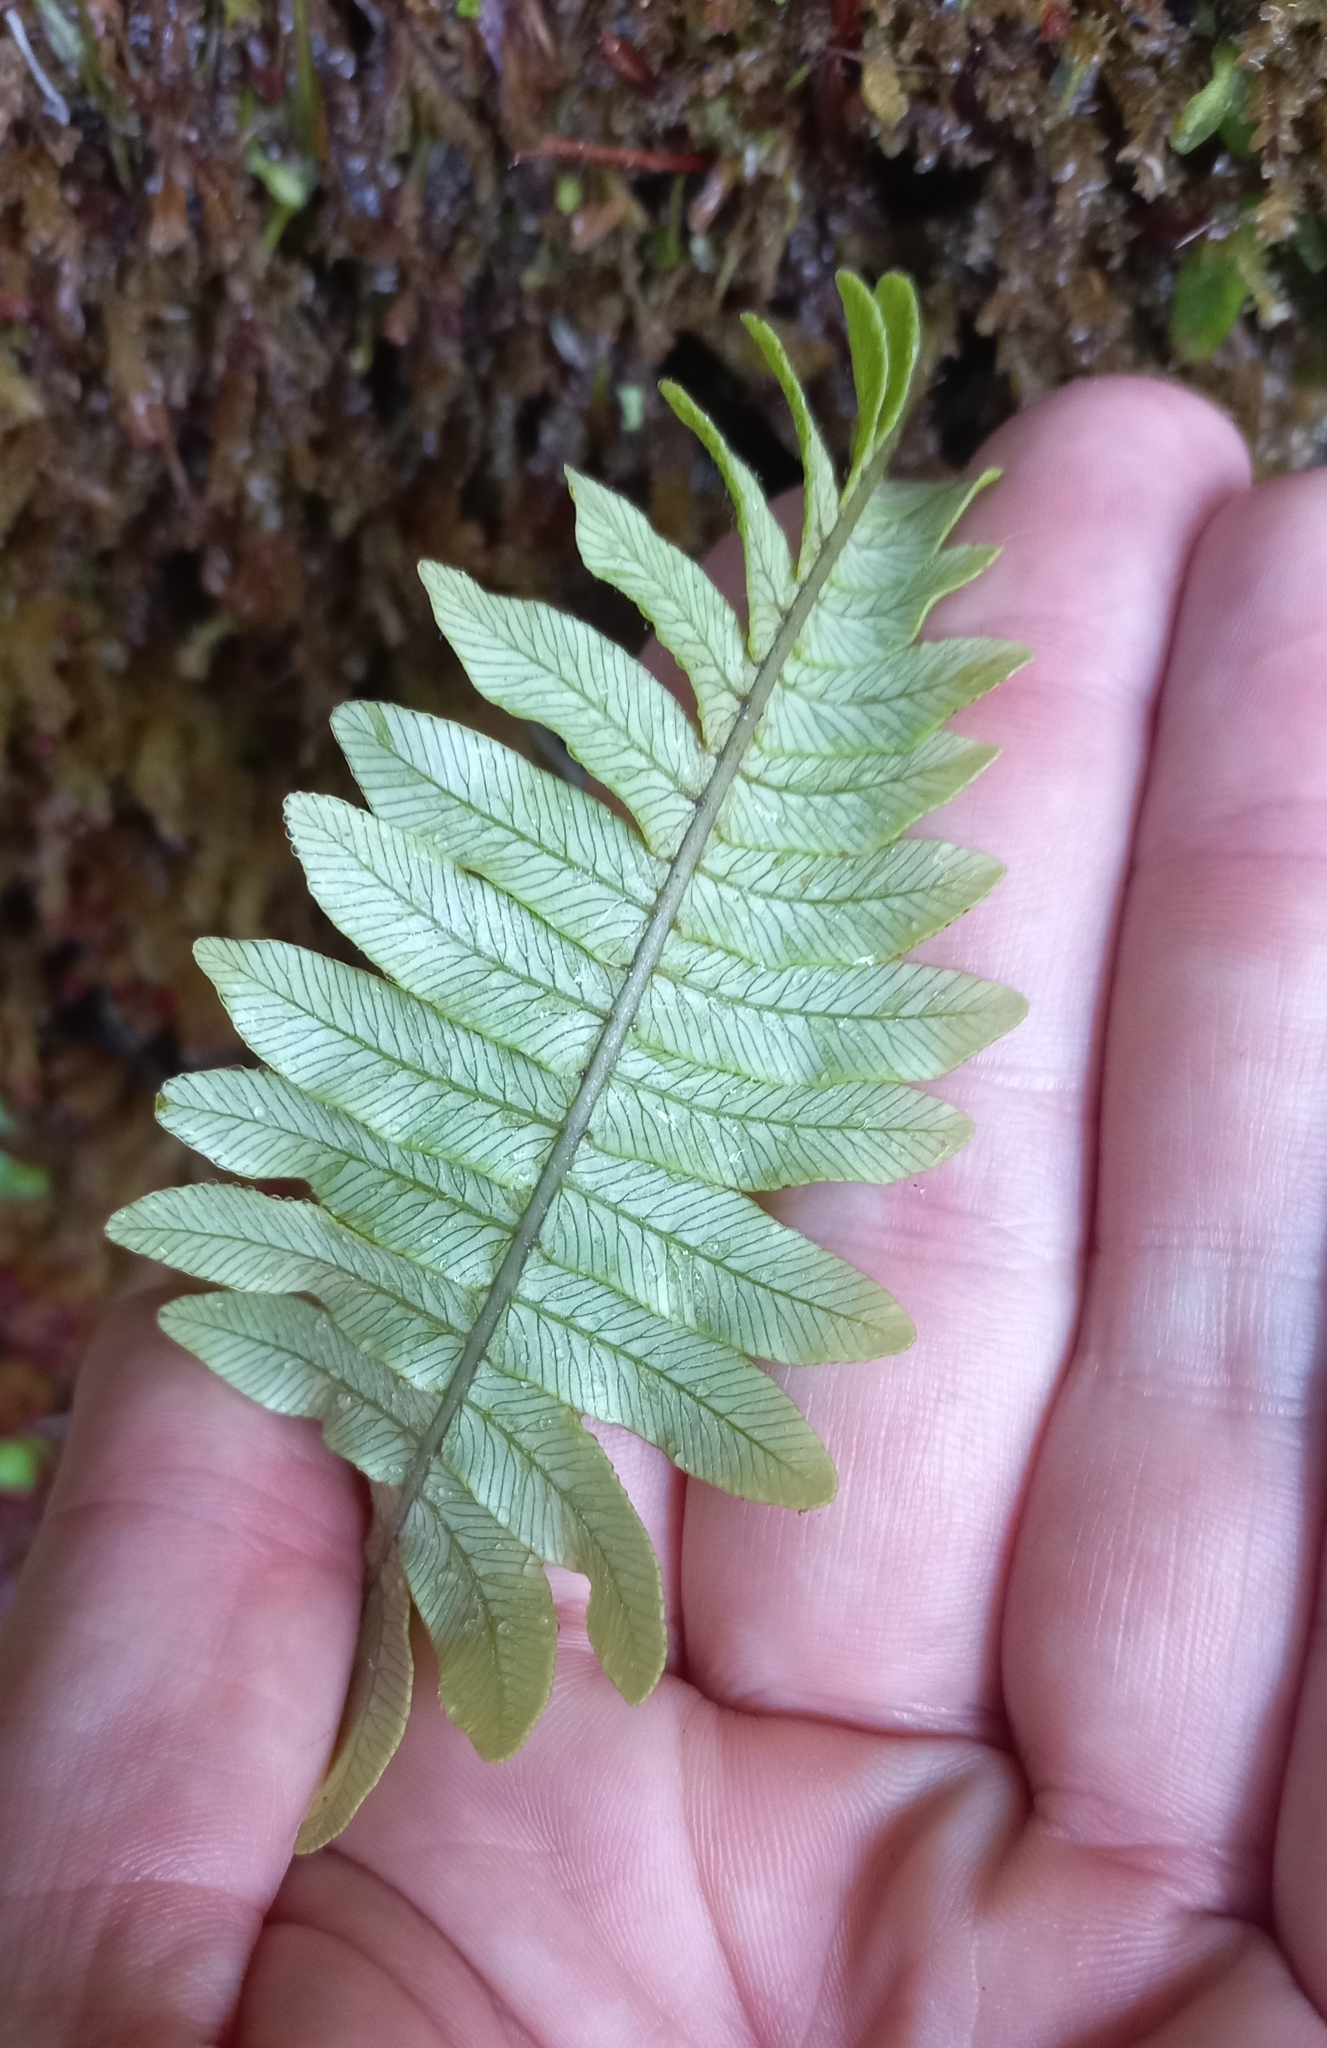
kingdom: Plantae
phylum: Tracheophyta
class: Polypodiopsida
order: Polypodiales
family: Blechnaceae
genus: Lomaria
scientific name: Lomaria discolor
